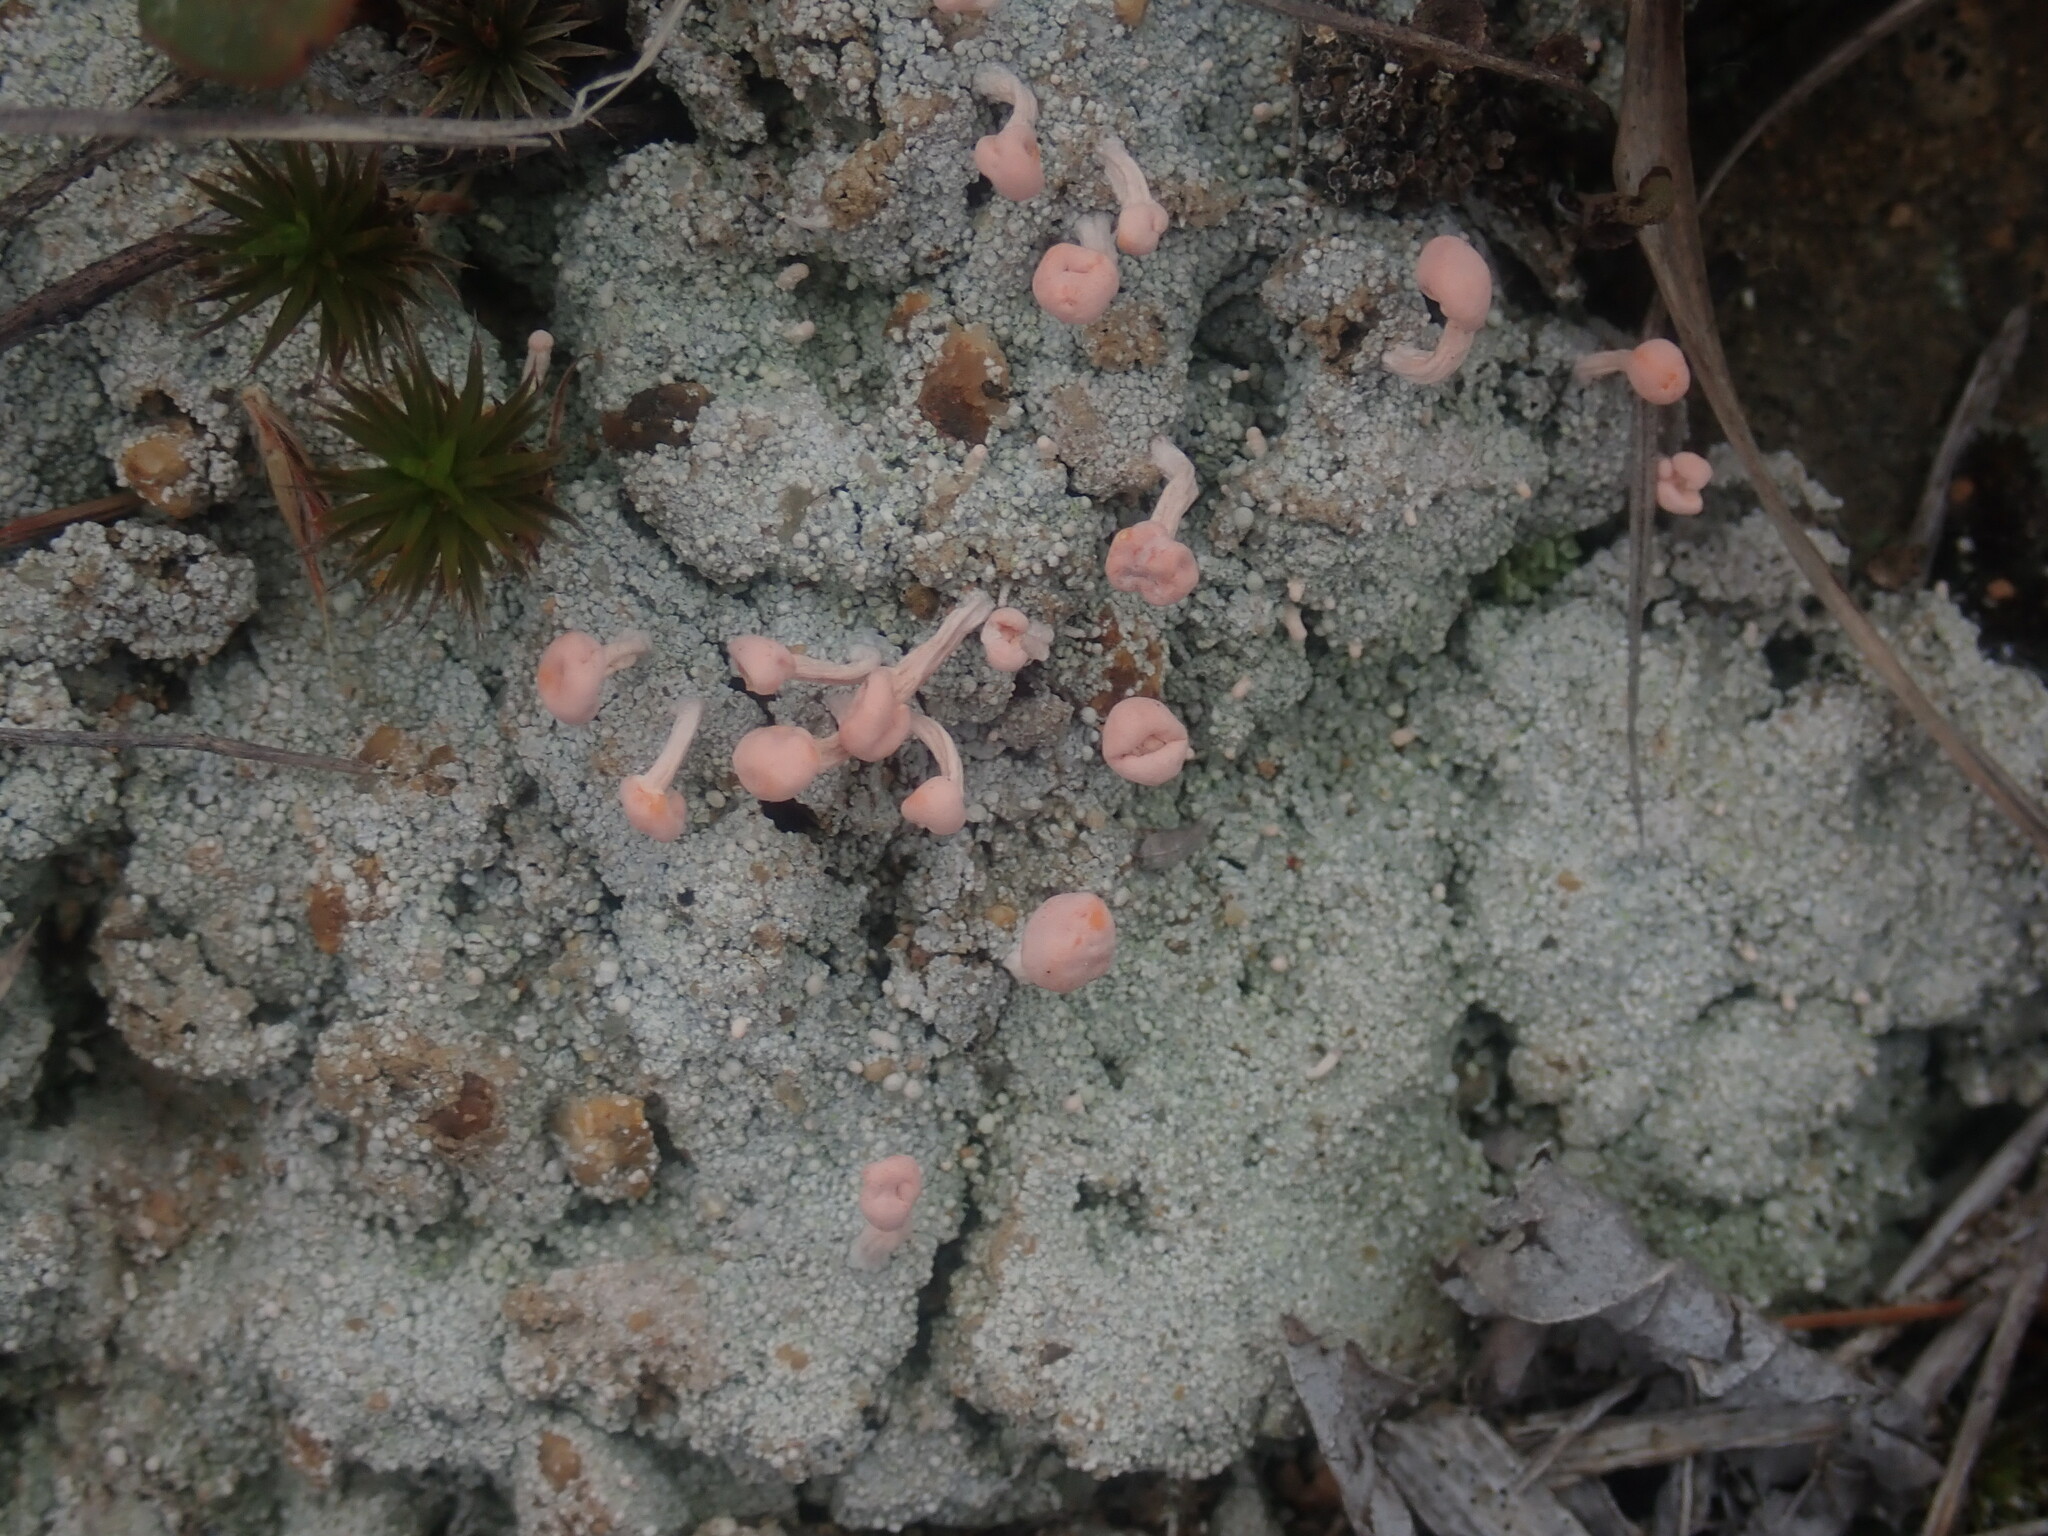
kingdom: Fungi
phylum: Ascomycota
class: Lecanoromycetes
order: Pertusariales
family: Icmadophilaceae
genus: Dibaeis
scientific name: Dibaeis baeomyces
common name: Pink earth lichen
